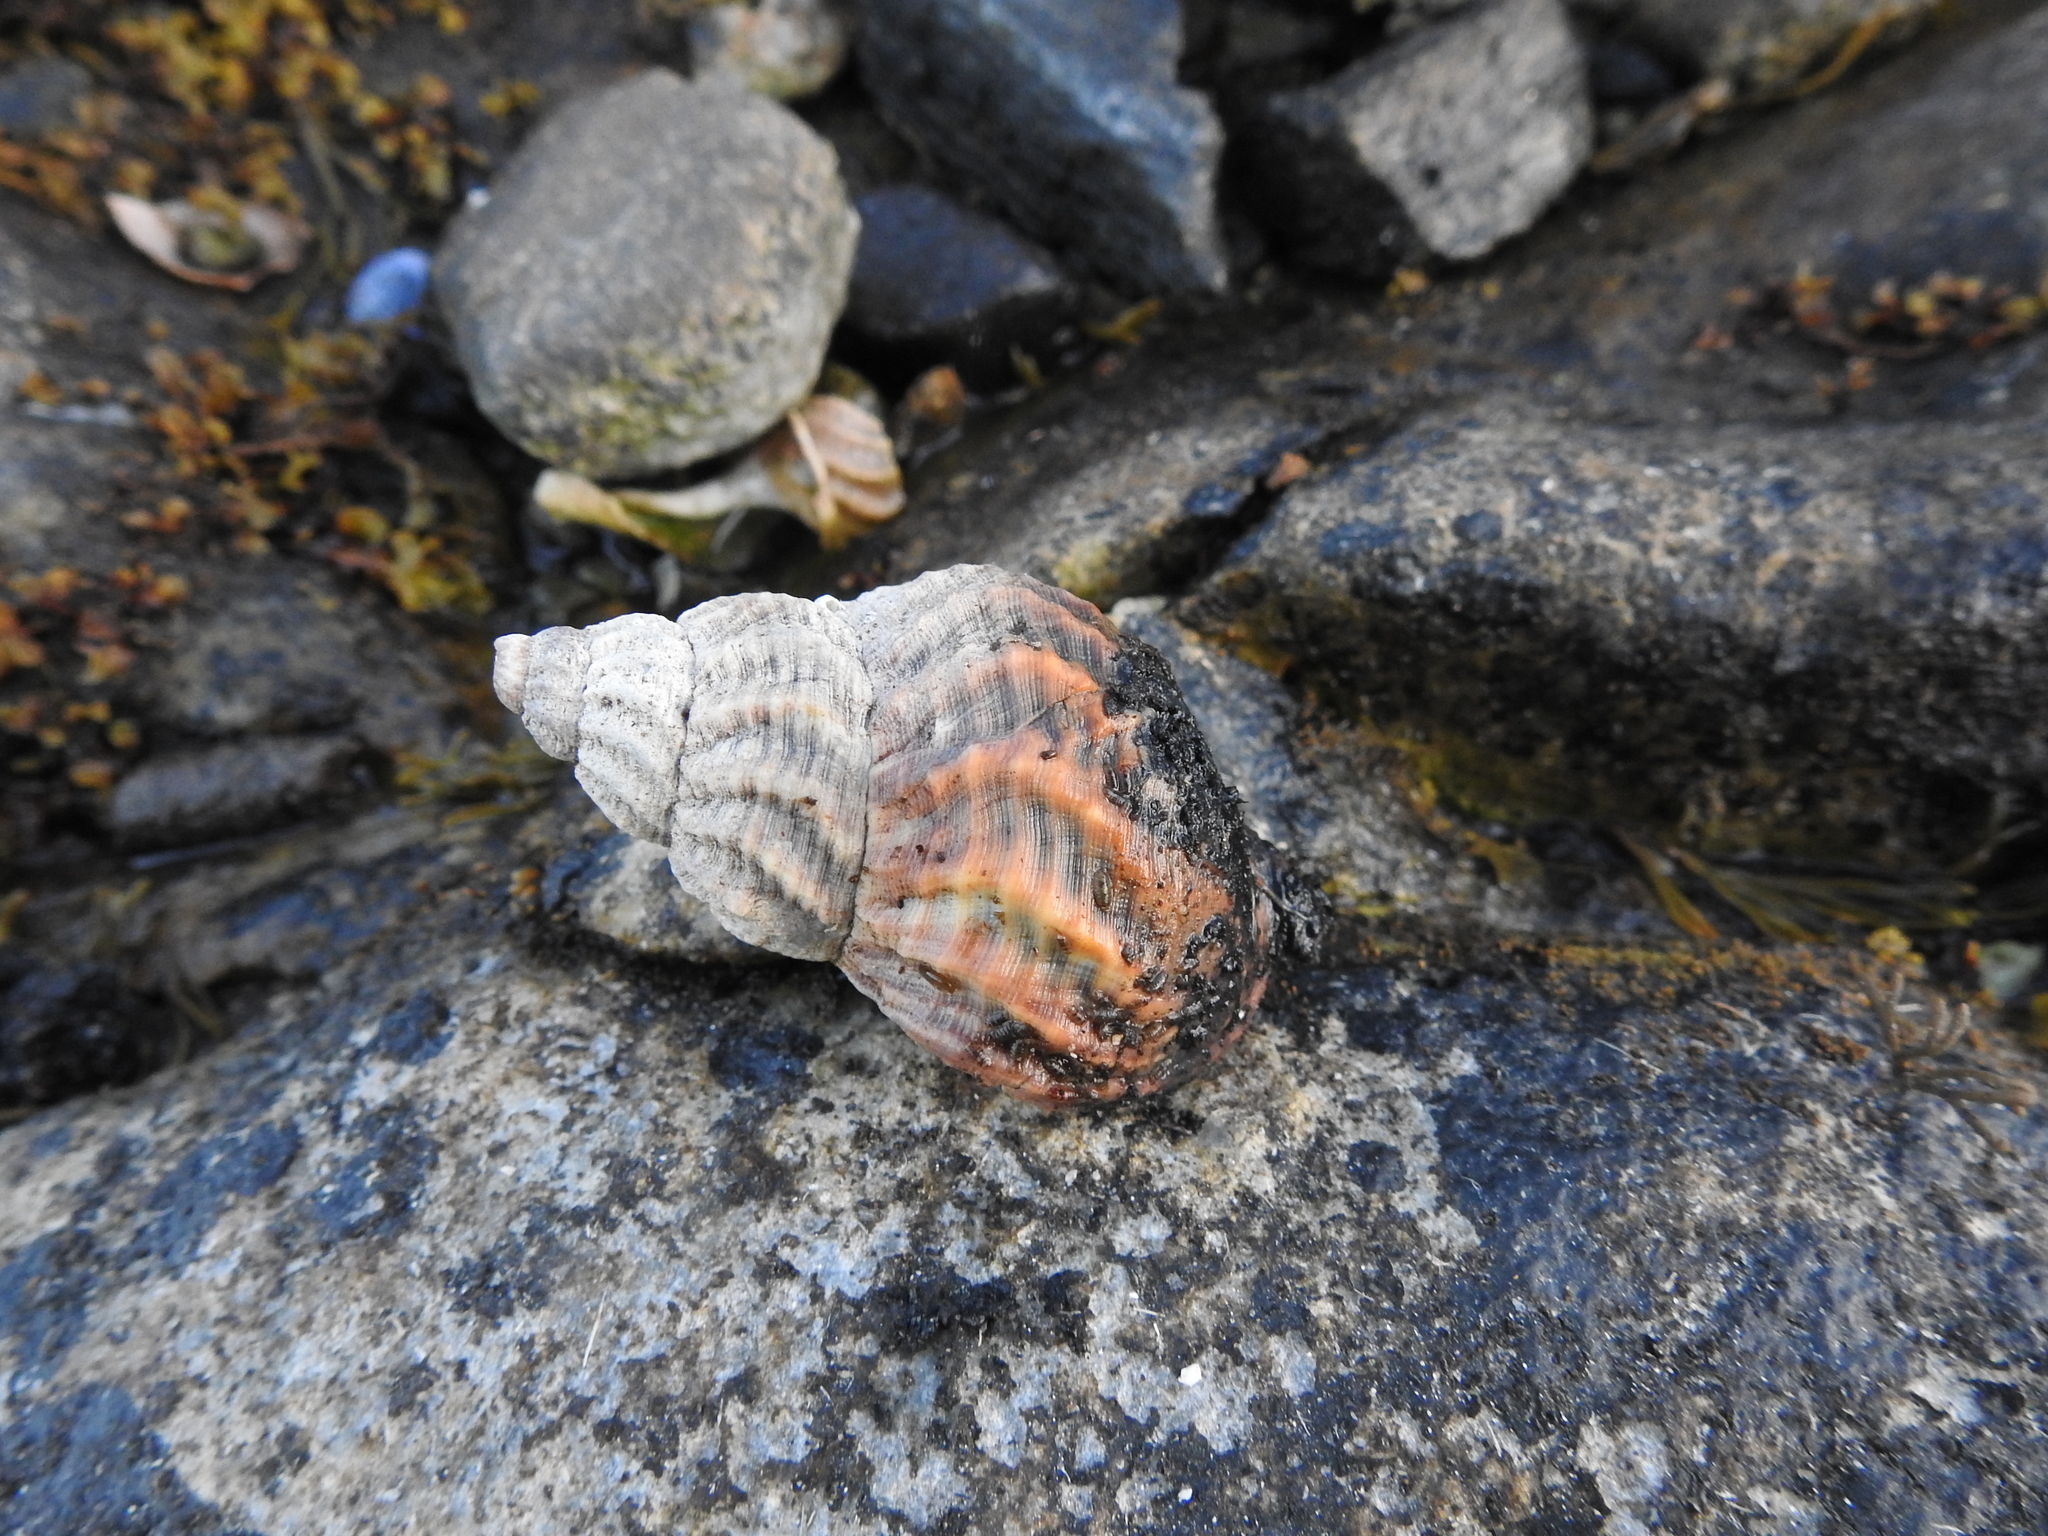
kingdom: Animalia
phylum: Mollusca
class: Gastropoda
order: Neogastropoda
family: Buccinidae
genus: Buccinum
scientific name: Buccinum undatum
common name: Common whelk
